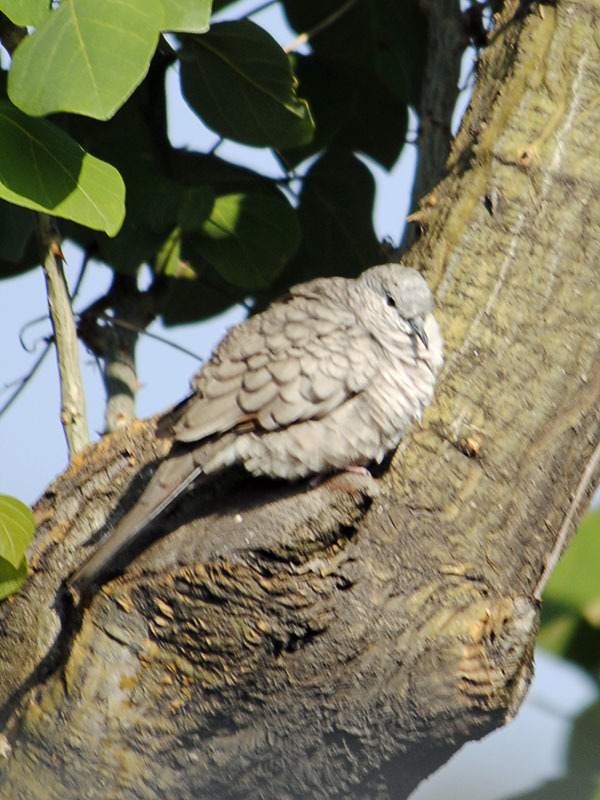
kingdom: Animalia
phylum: Chordata
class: Aves
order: Columbiformes
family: Columbidae
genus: Columbina
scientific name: Columbina inca
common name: Inca dove
